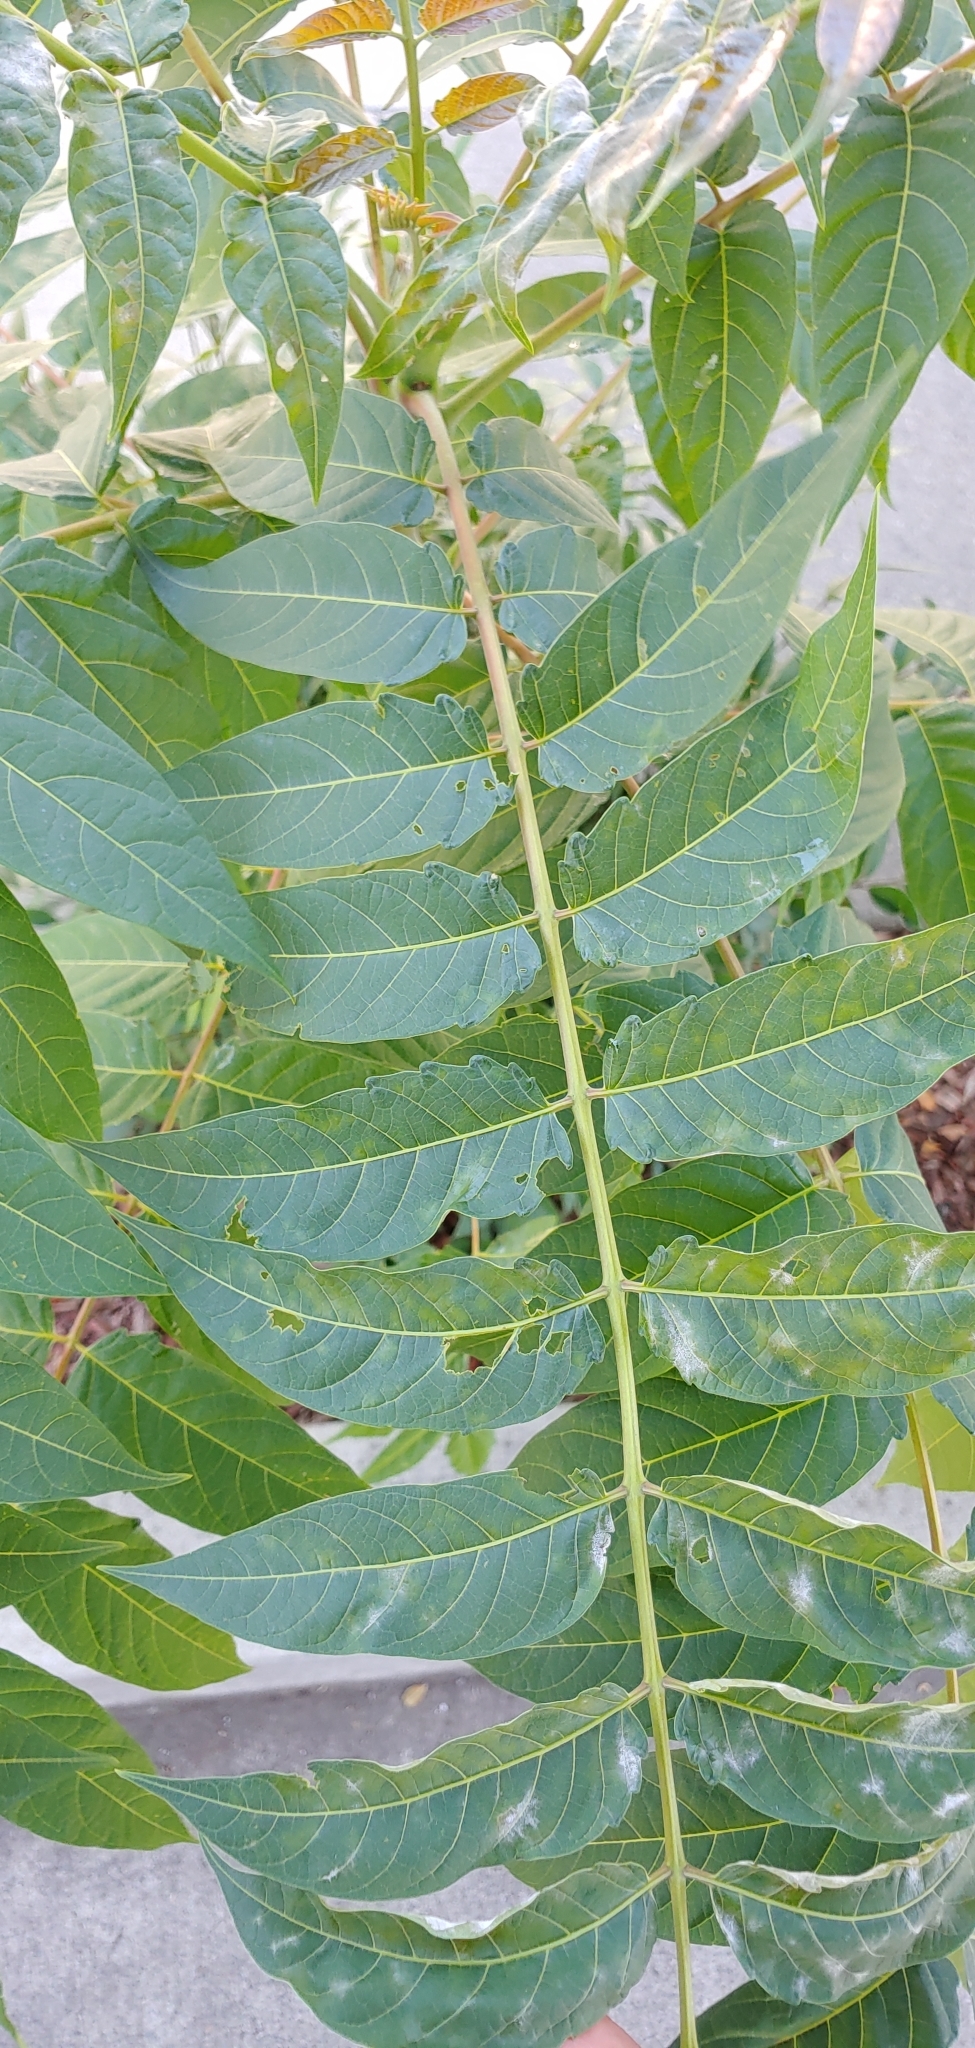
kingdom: Plantae
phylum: Tracheophyta
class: Magnoliopsida
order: Sapindales
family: Simaroubaceae
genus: Ailanthus
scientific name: Ailanthus altissima
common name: Tree-of-heaven
